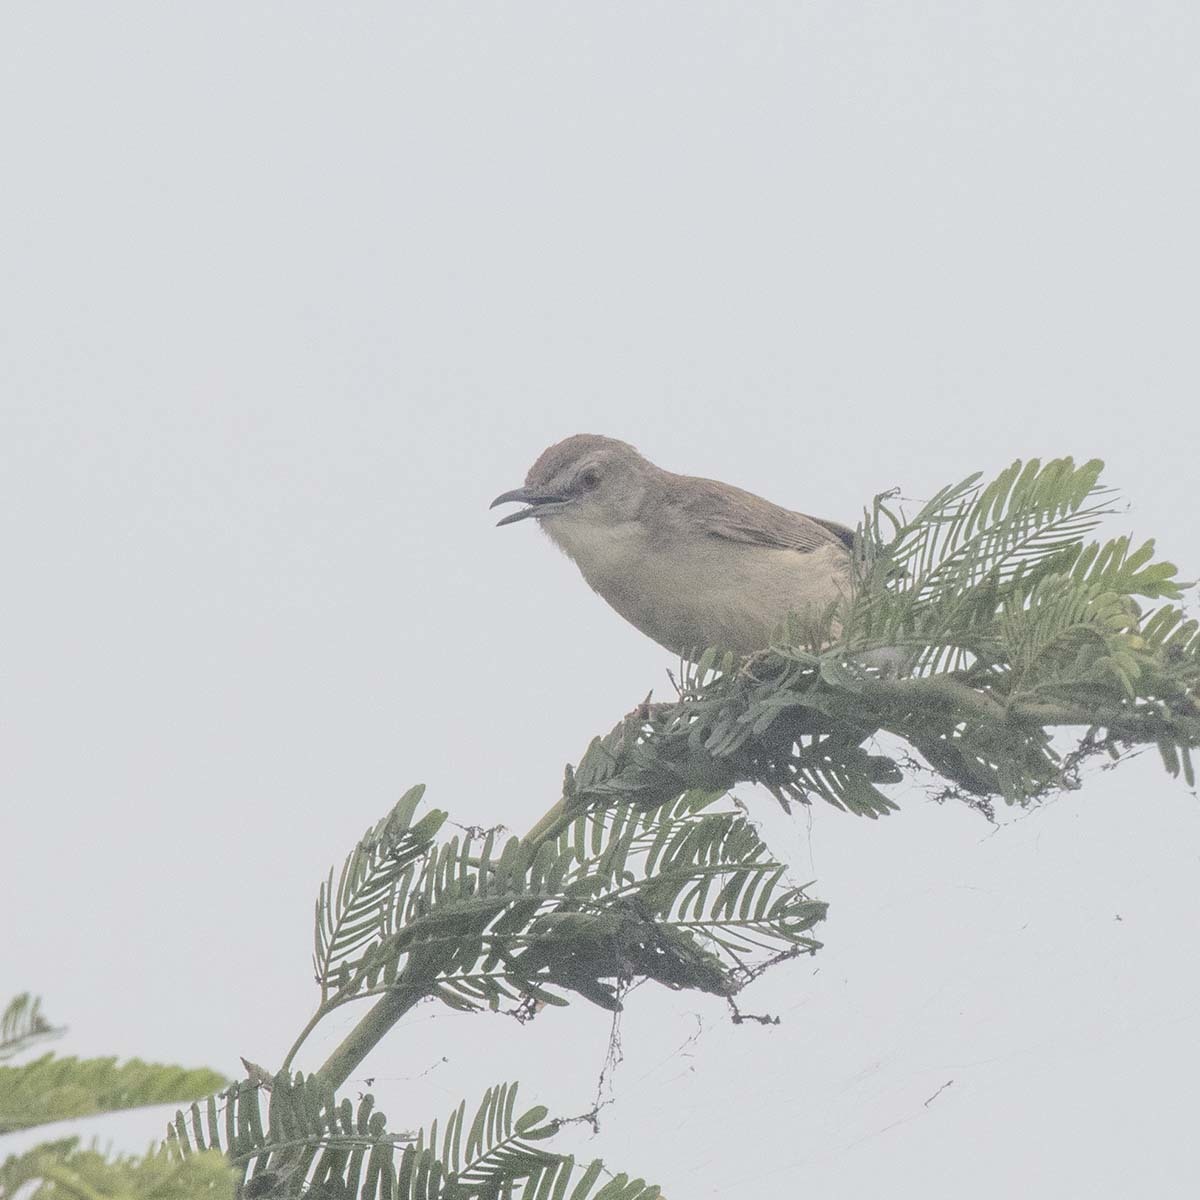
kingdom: Animalia
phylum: Chordata
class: Aves
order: Passeriformes
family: Cisticolidae
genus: Prinia
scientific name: Prinia inornata
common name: Plain prinia
